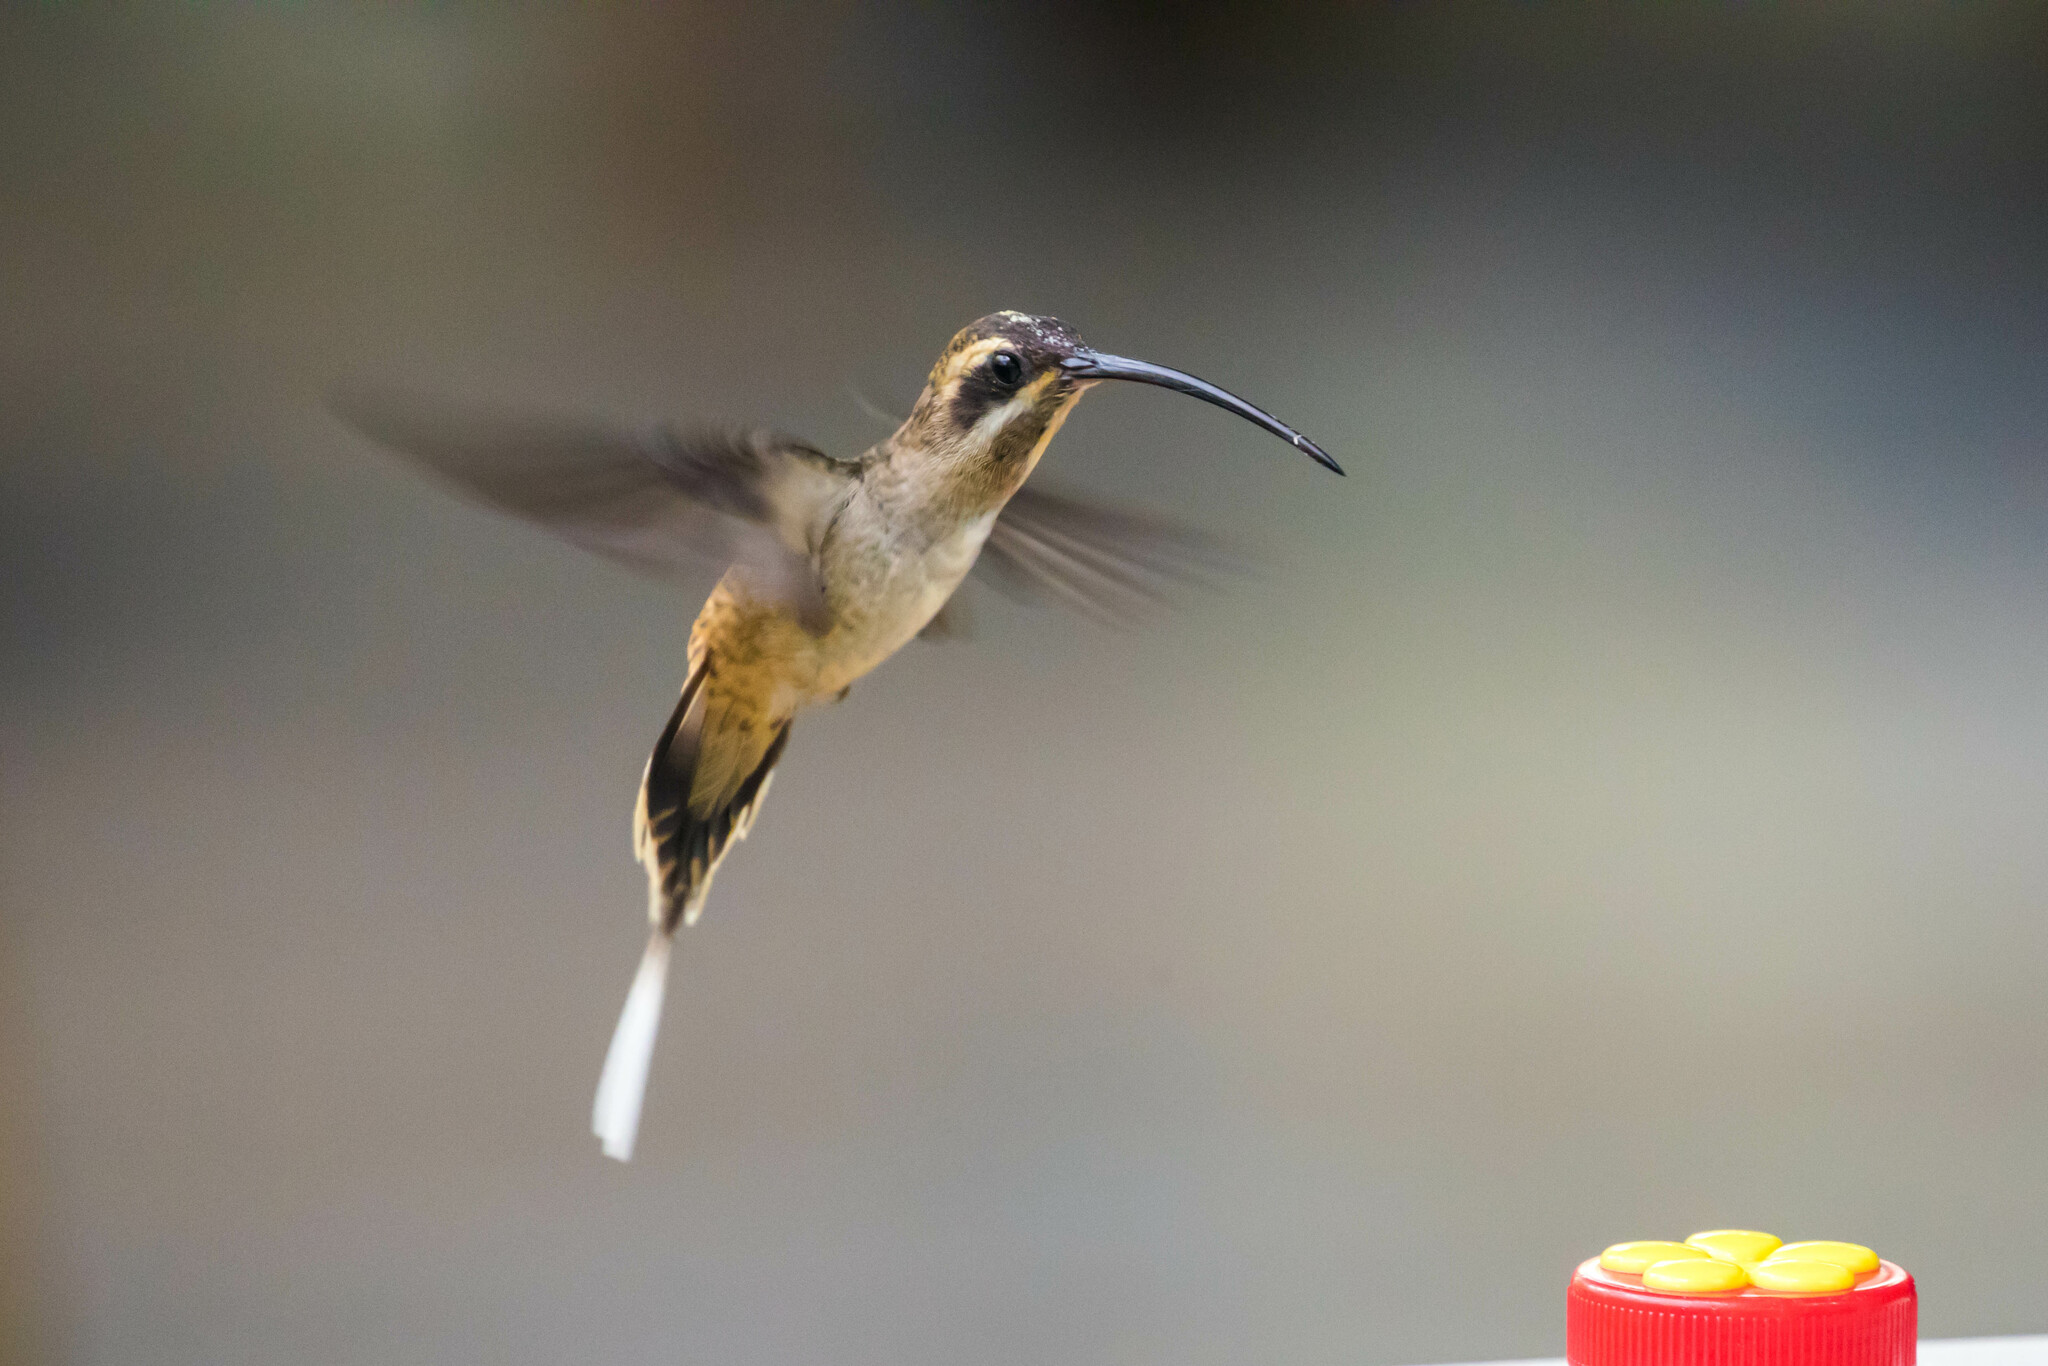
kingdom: Animalia
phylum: Chordata
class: Aves
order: Apodiformes
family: Trochilidae
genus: Phaethornis
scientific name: Phaethornis longirostris
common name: Long-billed hermit
